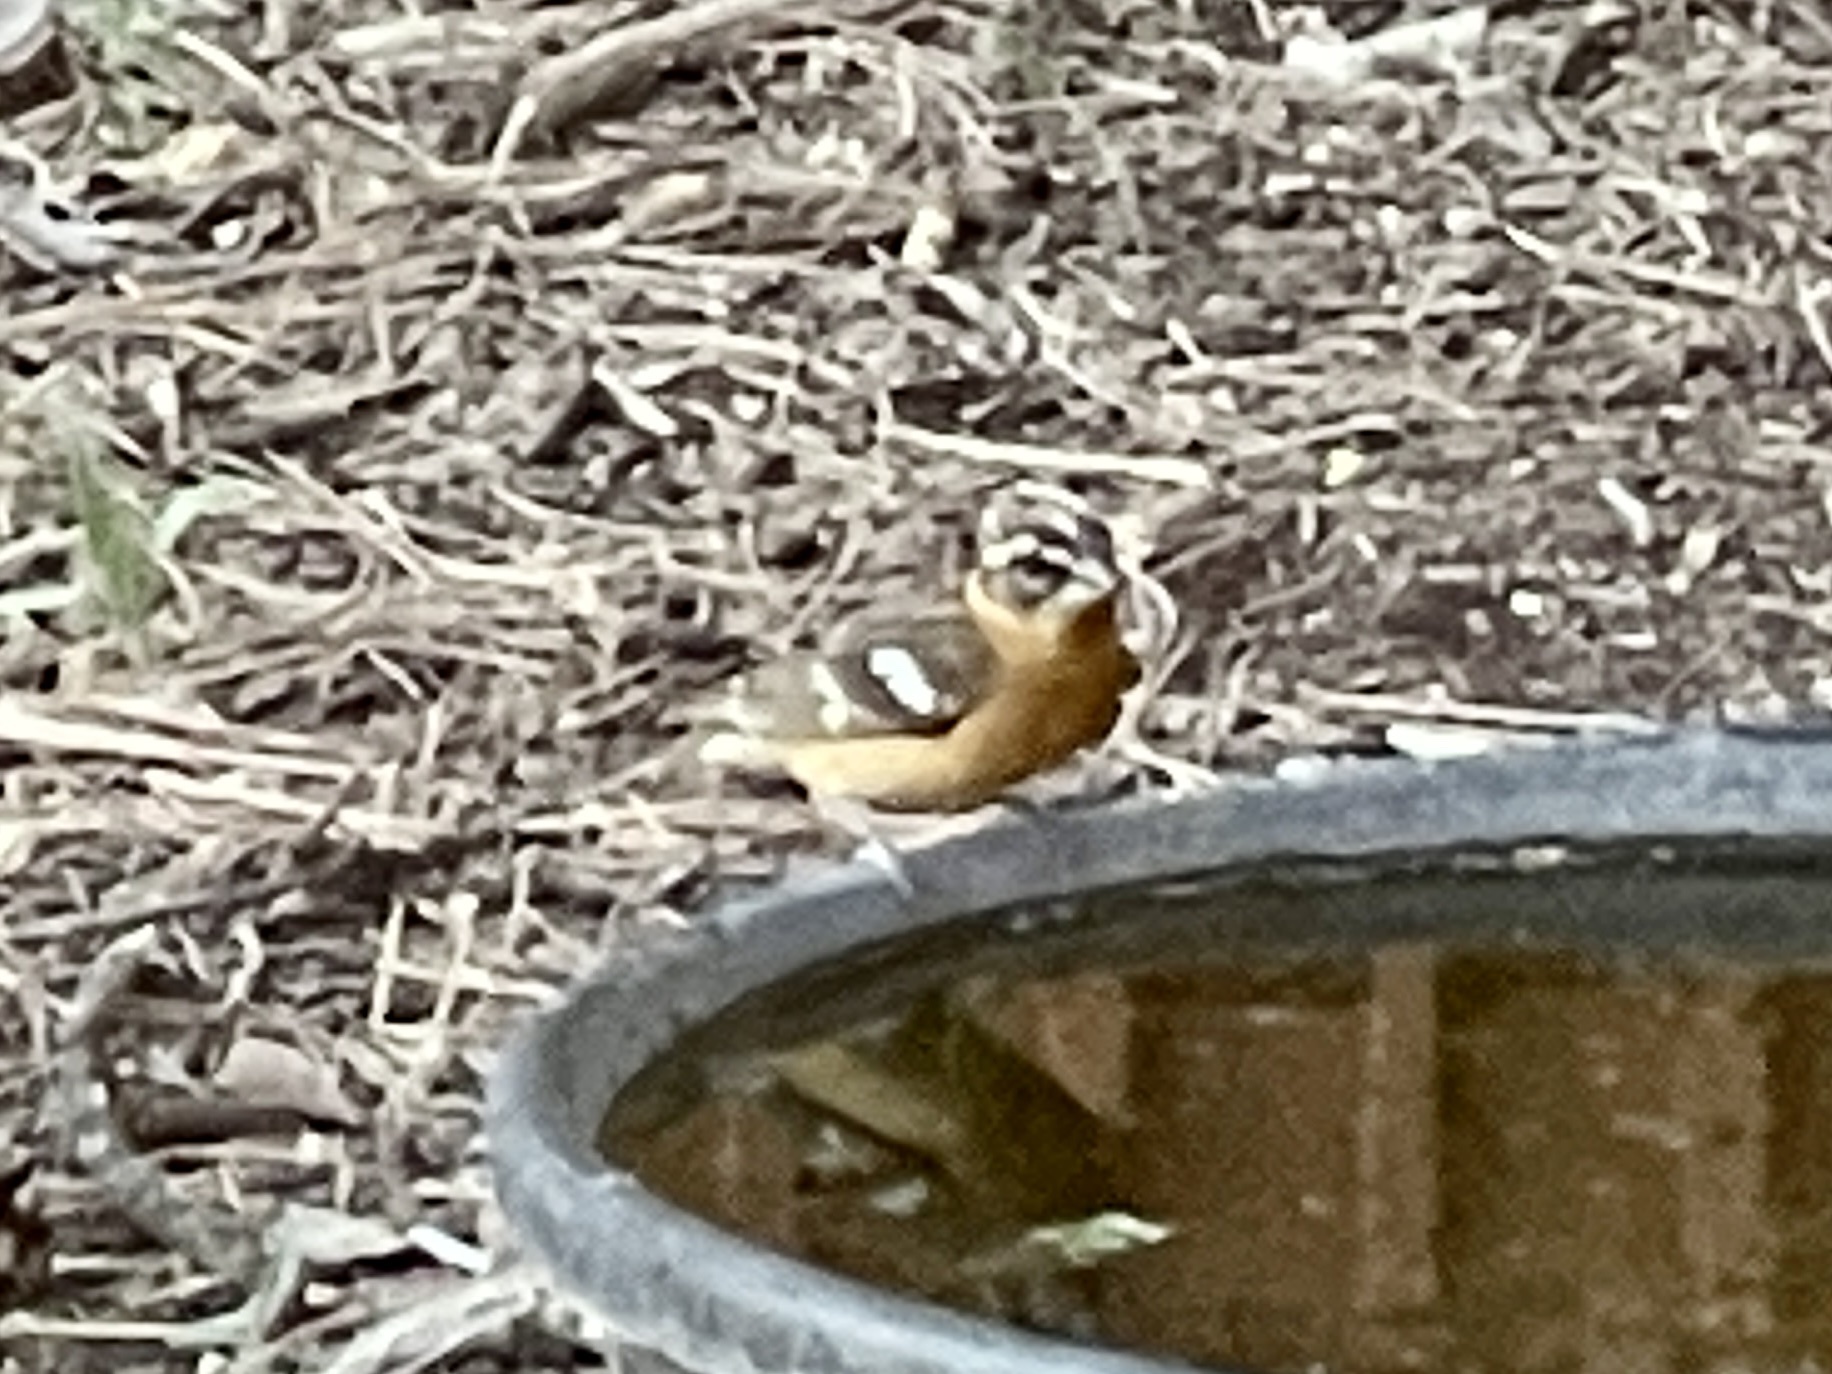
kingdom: Animalia
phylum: Chordata
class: Aves
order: Passeriformes
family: Cardinalidae
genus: Pheucticus
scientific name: Pheucticus melanocephalus
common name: Black-headed grosbeak
